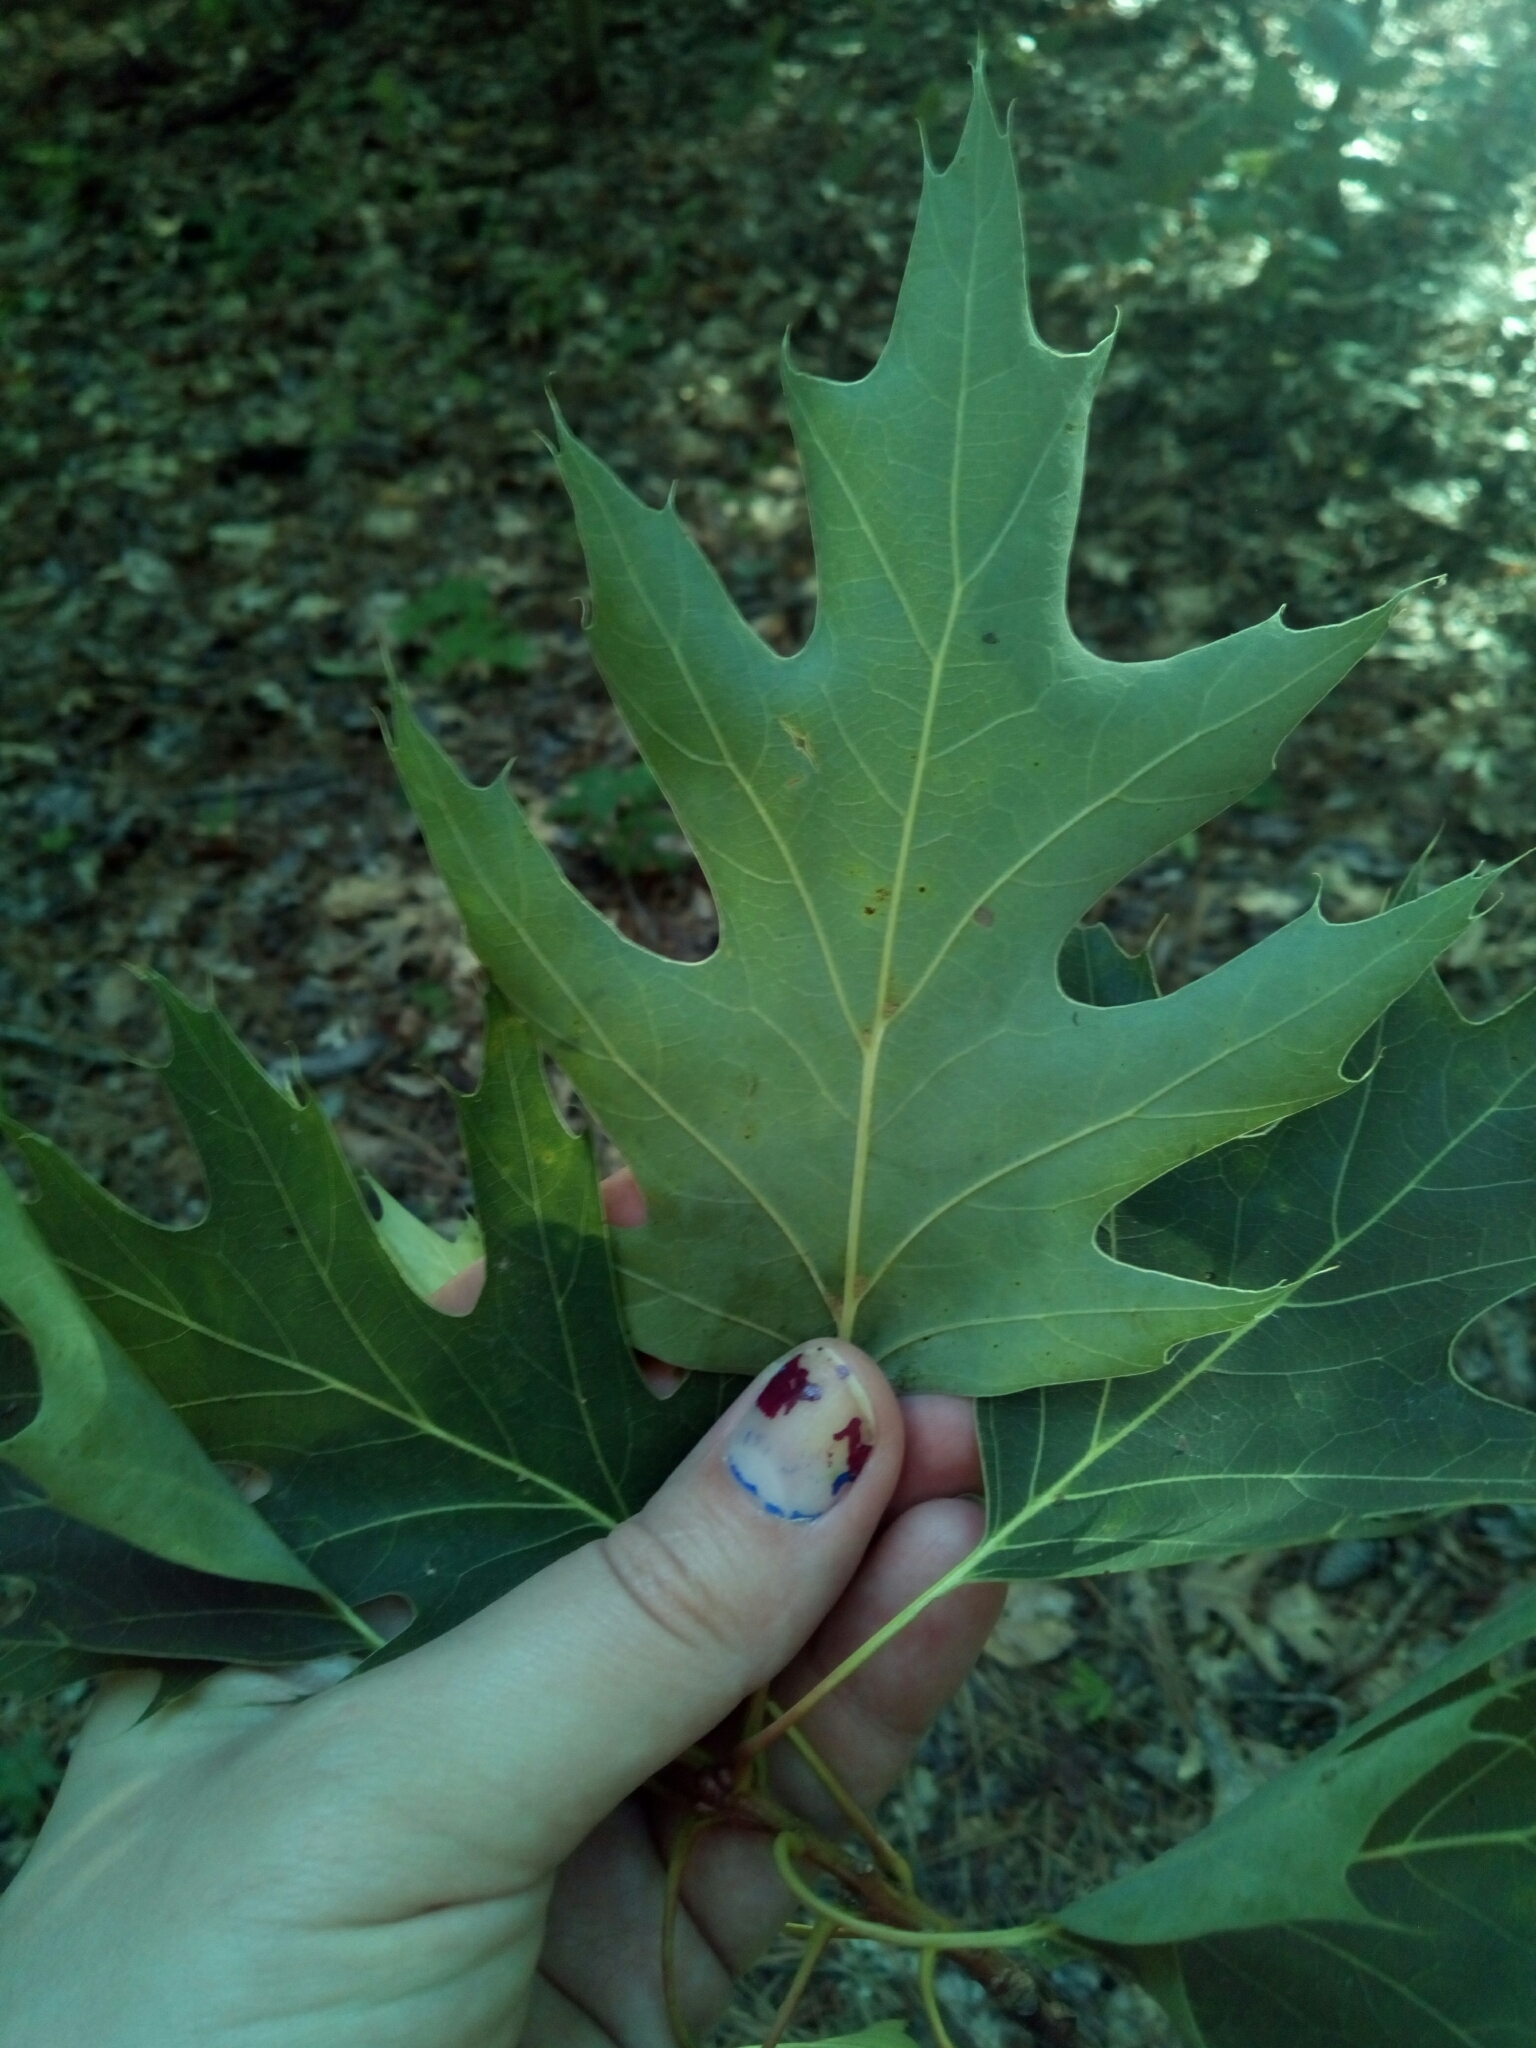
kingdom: Plantae
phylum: Tracheophyta
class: Magnoliopsida
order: Fagales
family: Fagaceae
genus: Quercus
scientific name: Quercus rubra
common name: Red oak
